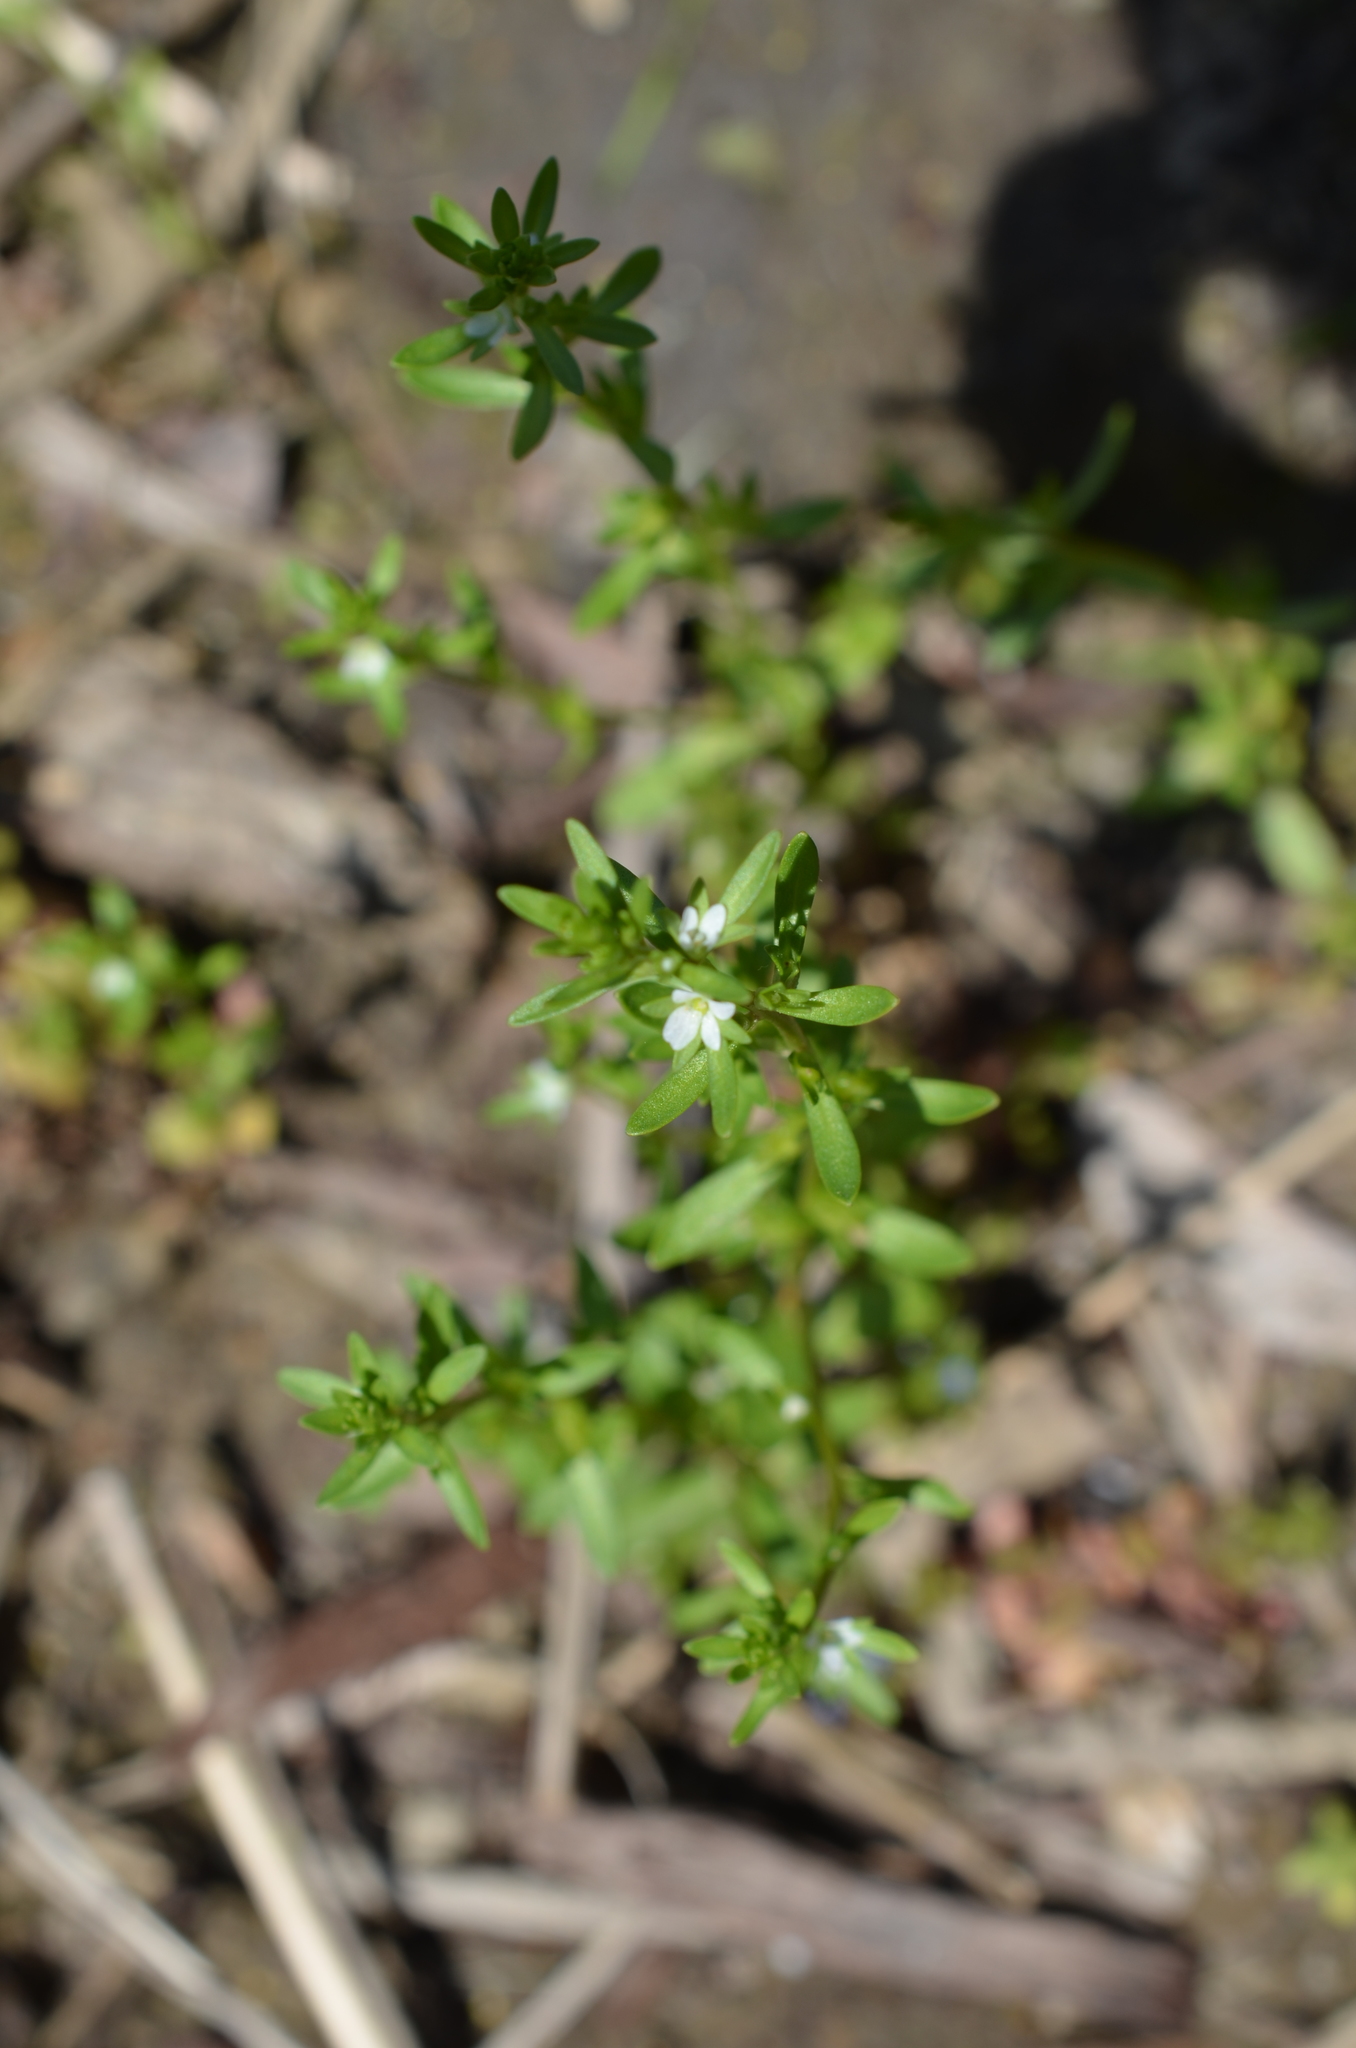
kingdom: Plantae
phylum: Tracheophyta
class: Magnoliopsida
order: Lamiales
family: Plantaginaceae
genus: Veronica
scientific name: Veronica peregrina
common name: Neckweed
